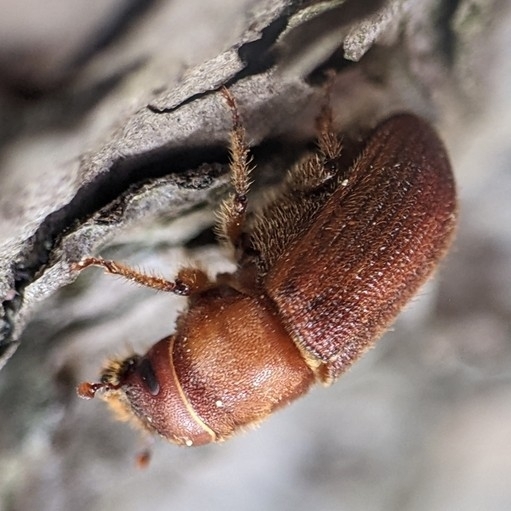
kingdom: Animalia
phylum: Arthropoda
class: Insecta
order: Coleoptera
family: Curculionidae
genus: Dendroctonus
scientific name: Dendroctonus valens
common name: Red turpentine beetle
